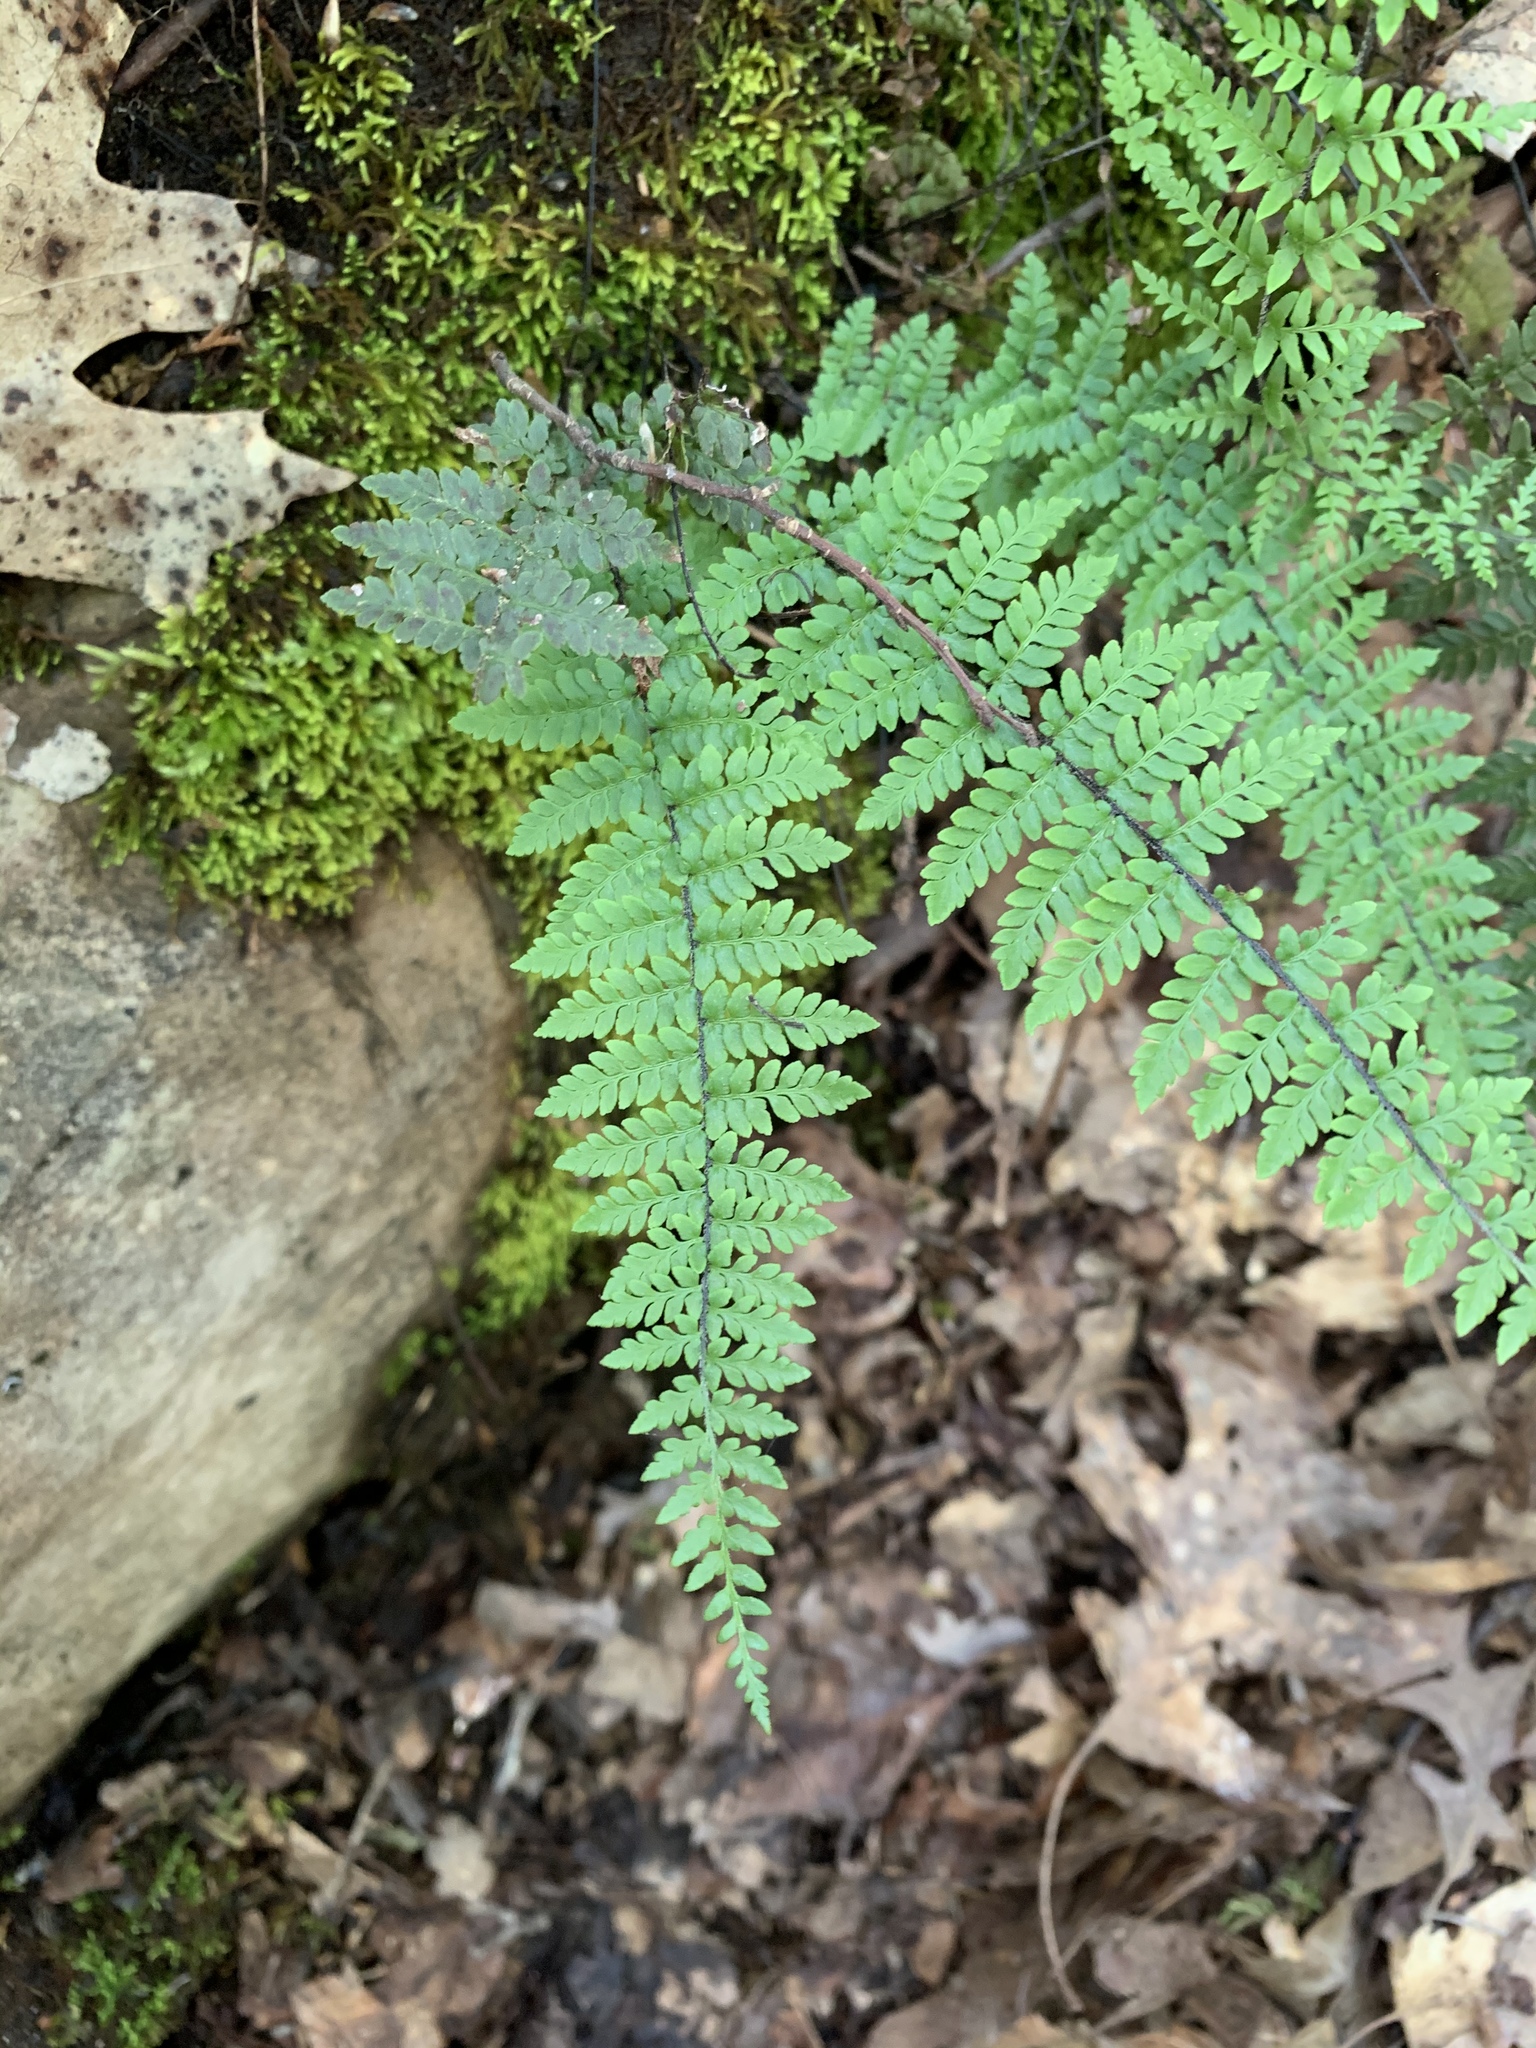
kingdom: Plantae
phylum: Tracheophyta
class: Polypodiopsida
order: Polypodiales
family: Pteridaceae
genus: Myriopteris
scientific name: Myriopteris alabamensis
